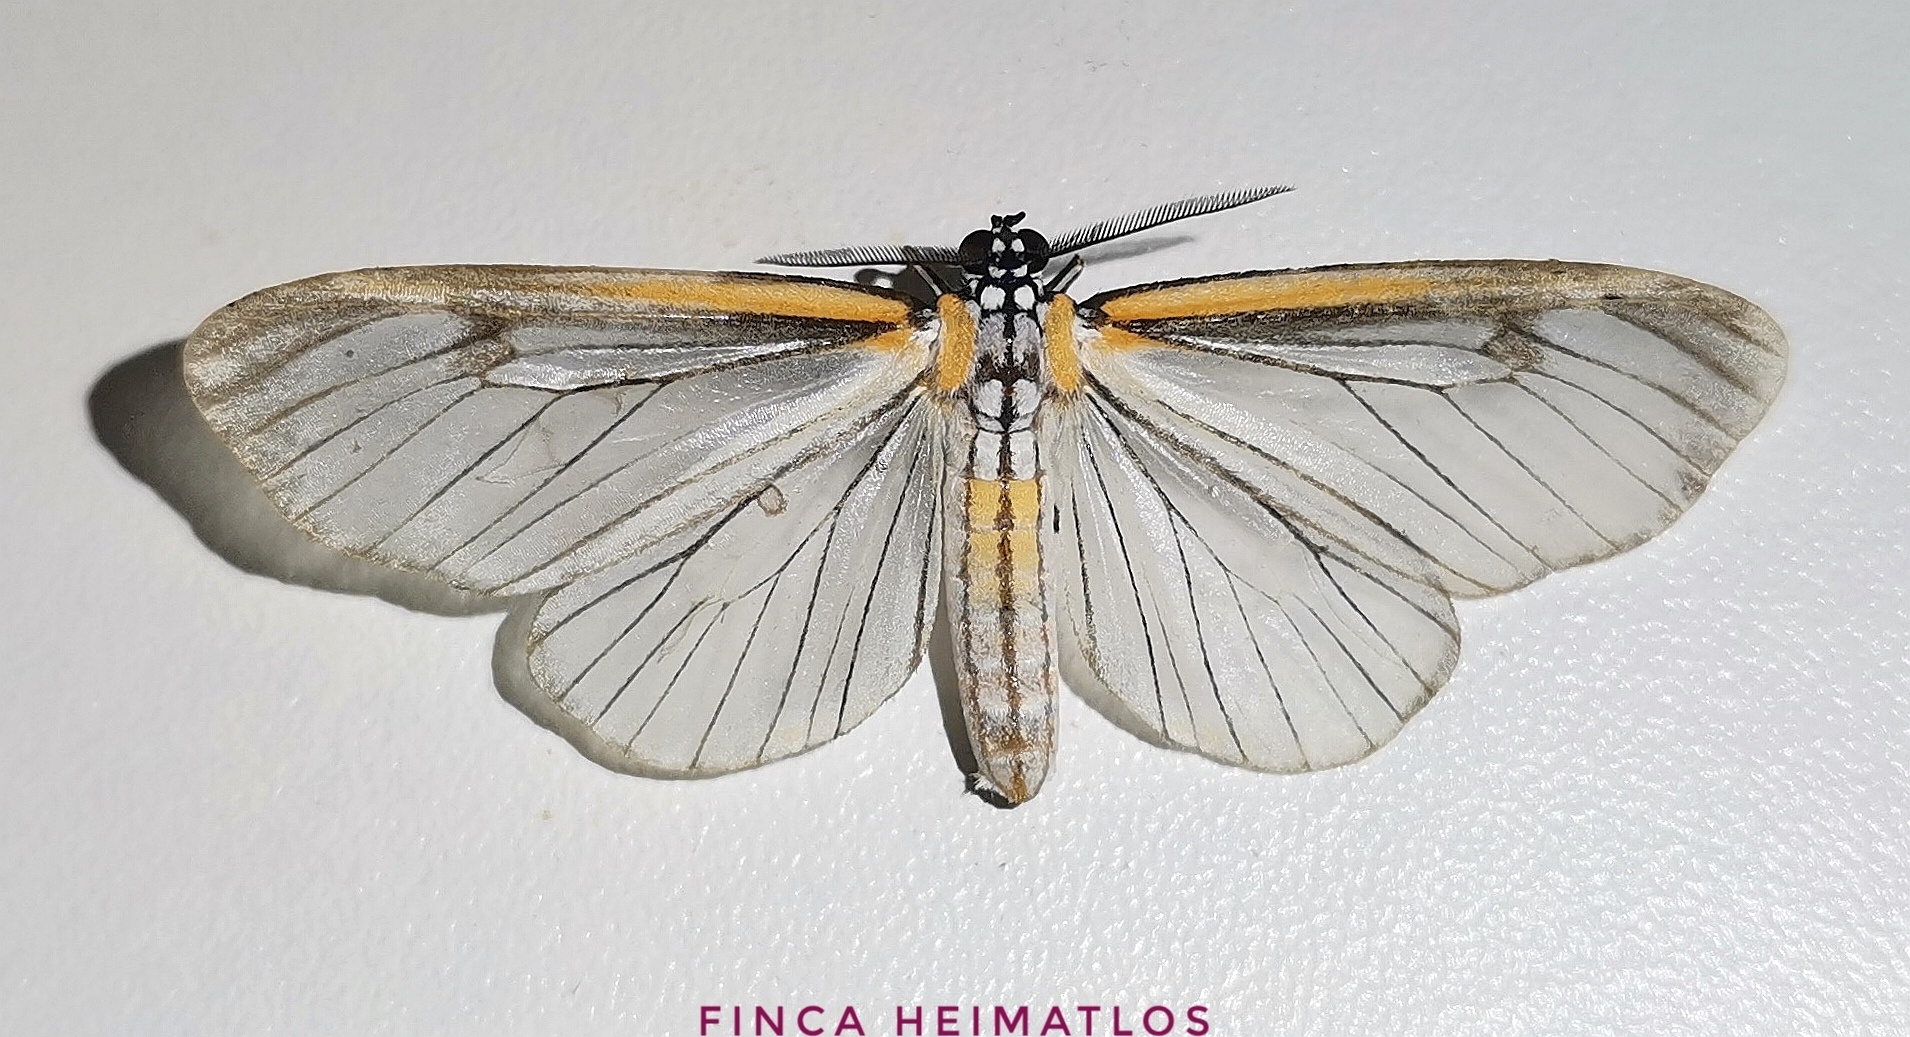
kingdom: Animalia
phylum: Arthropoda
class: Insecta
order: Lepidoptera
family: Erebidae
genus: Hyalurga
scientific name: Hyalurga subnormalis
